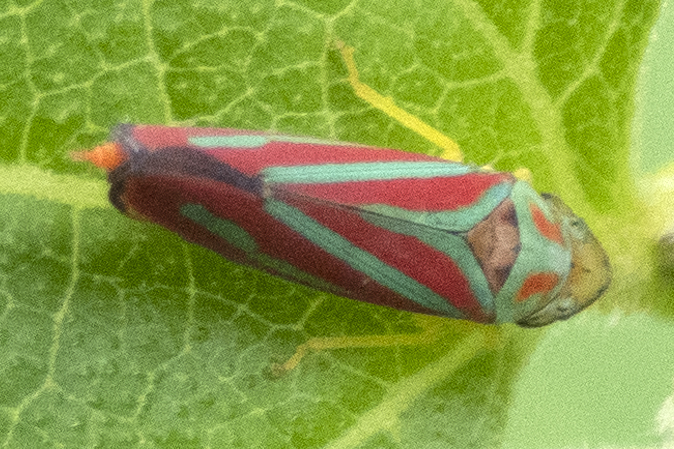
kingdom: Animalia
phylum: Arthropoda
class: Insecta
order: Hemiptera
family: Cicadellidae
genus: Graphocephala
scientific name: Graphocephala coccinea
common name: Candy-striped leafhopper
